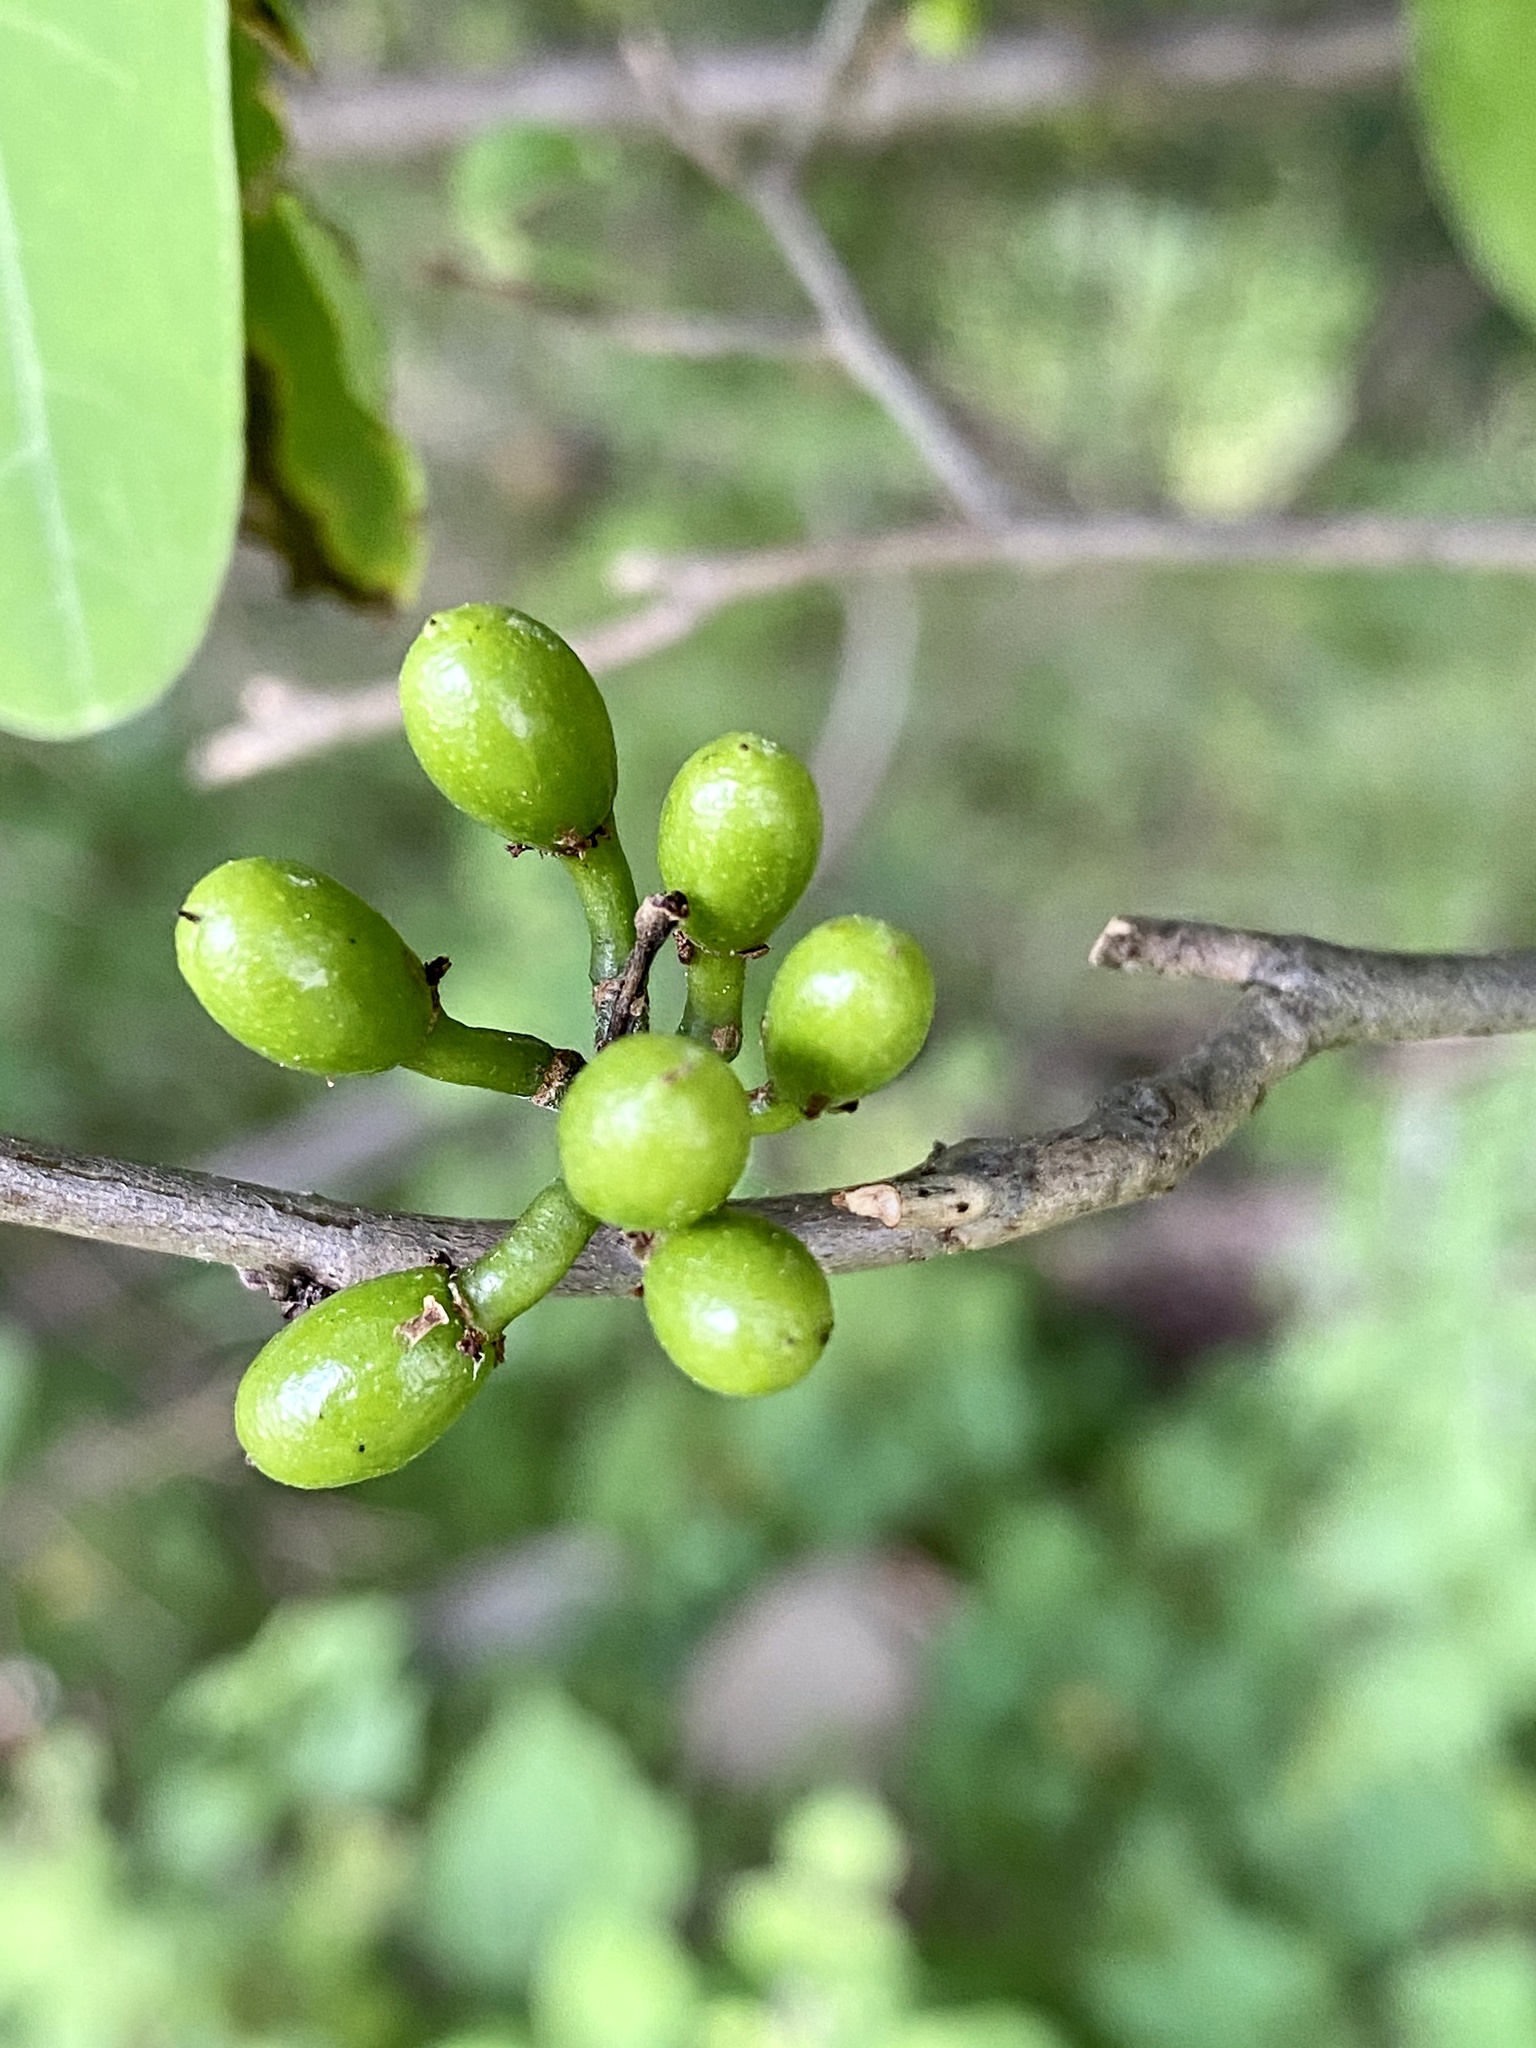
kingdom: Plantae
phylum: Tracheophyta
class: Magnoliopsida
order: Laurales
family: Lauraceae
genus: Lindera
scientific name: Lindera benzoin
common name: Spicebush
